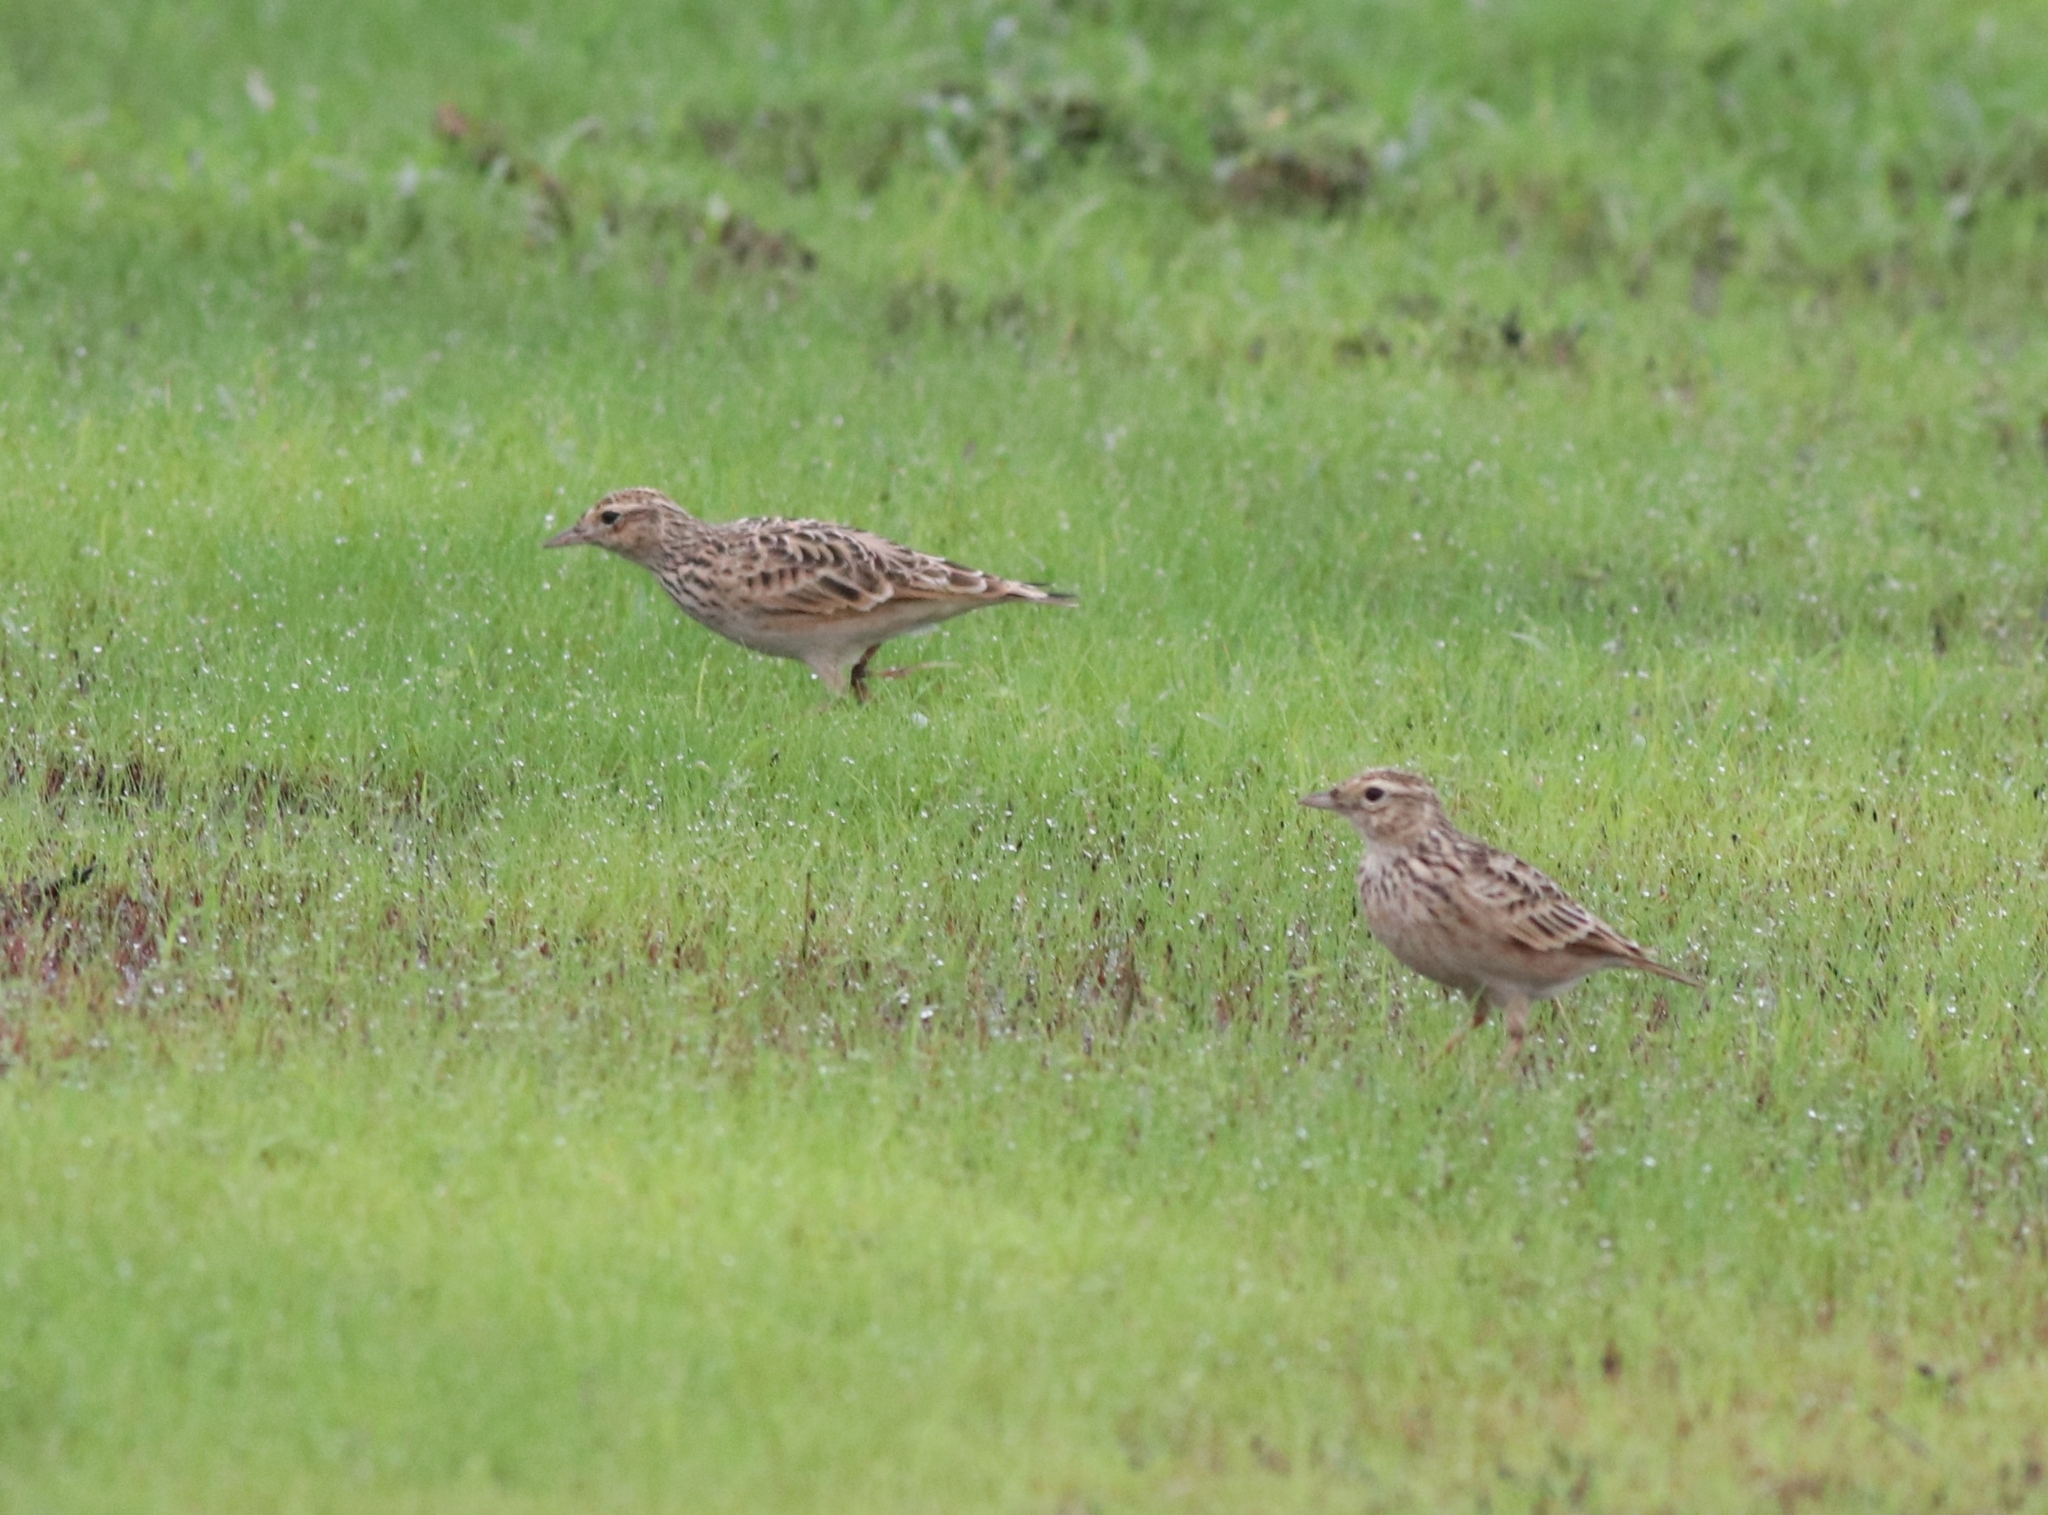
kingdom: Animalia
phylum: Chordata
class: Aves
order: Passeriformes
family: Alaudidae
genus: Alauda
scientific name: Alauda gulgula
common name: Oriental skylark
